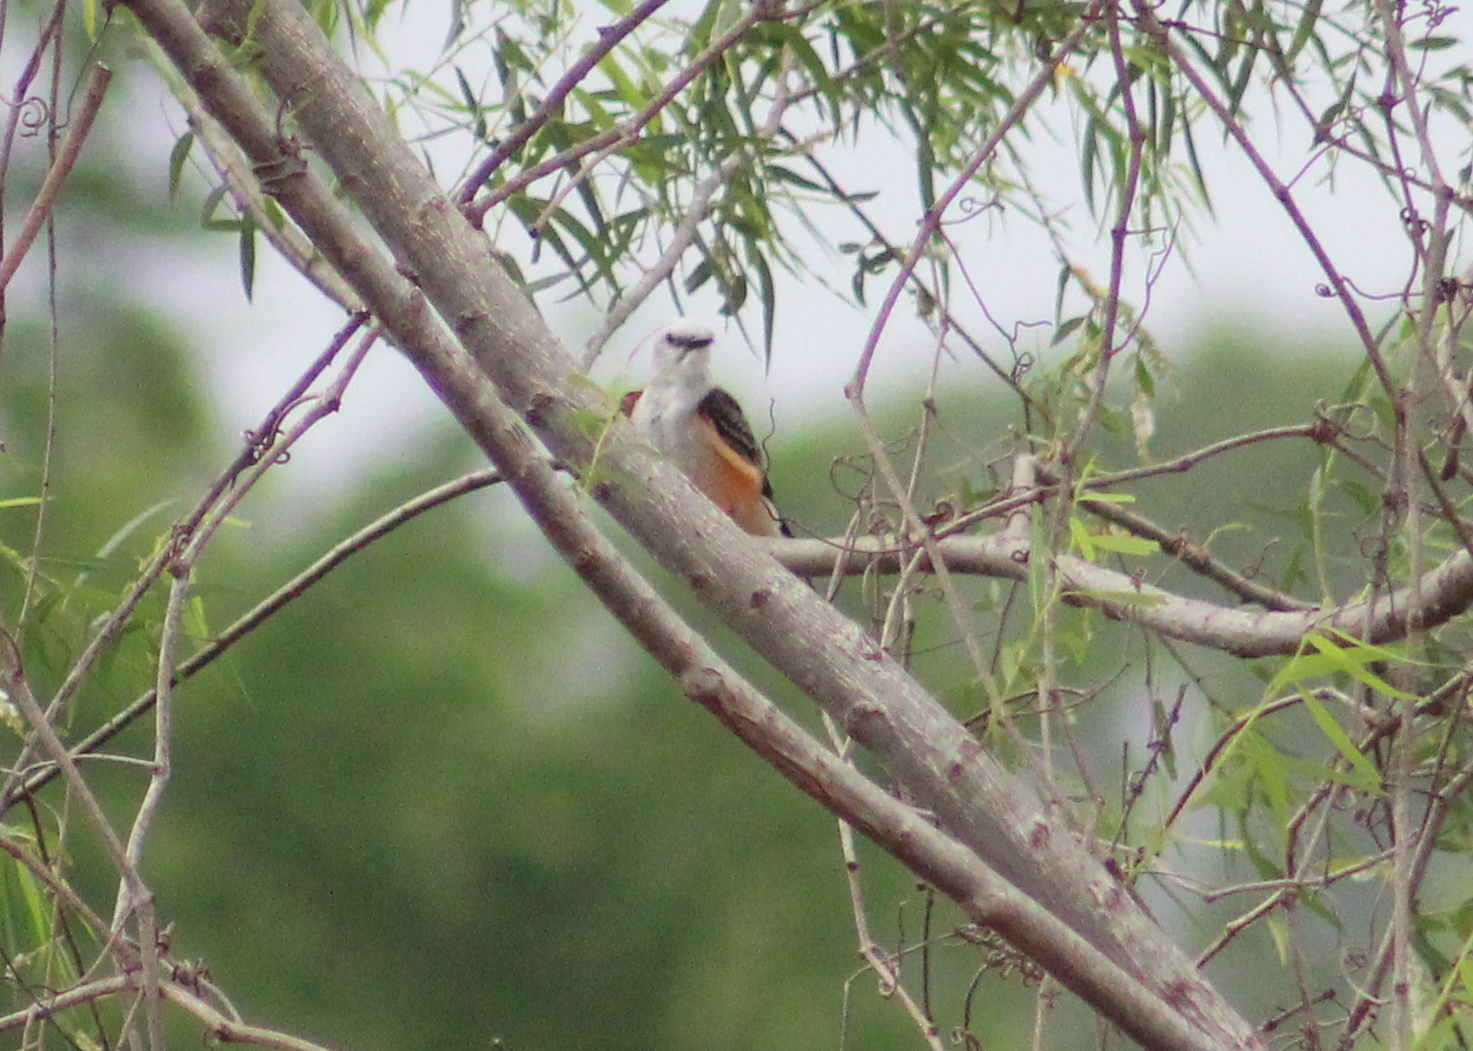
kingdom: Animalia
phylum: Chordata
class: Aves
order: Passeriformes
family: Tyrannidae
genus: Tyrannus
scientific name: Tyrannus forficatus
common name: Scissor-tailed flycatcher
